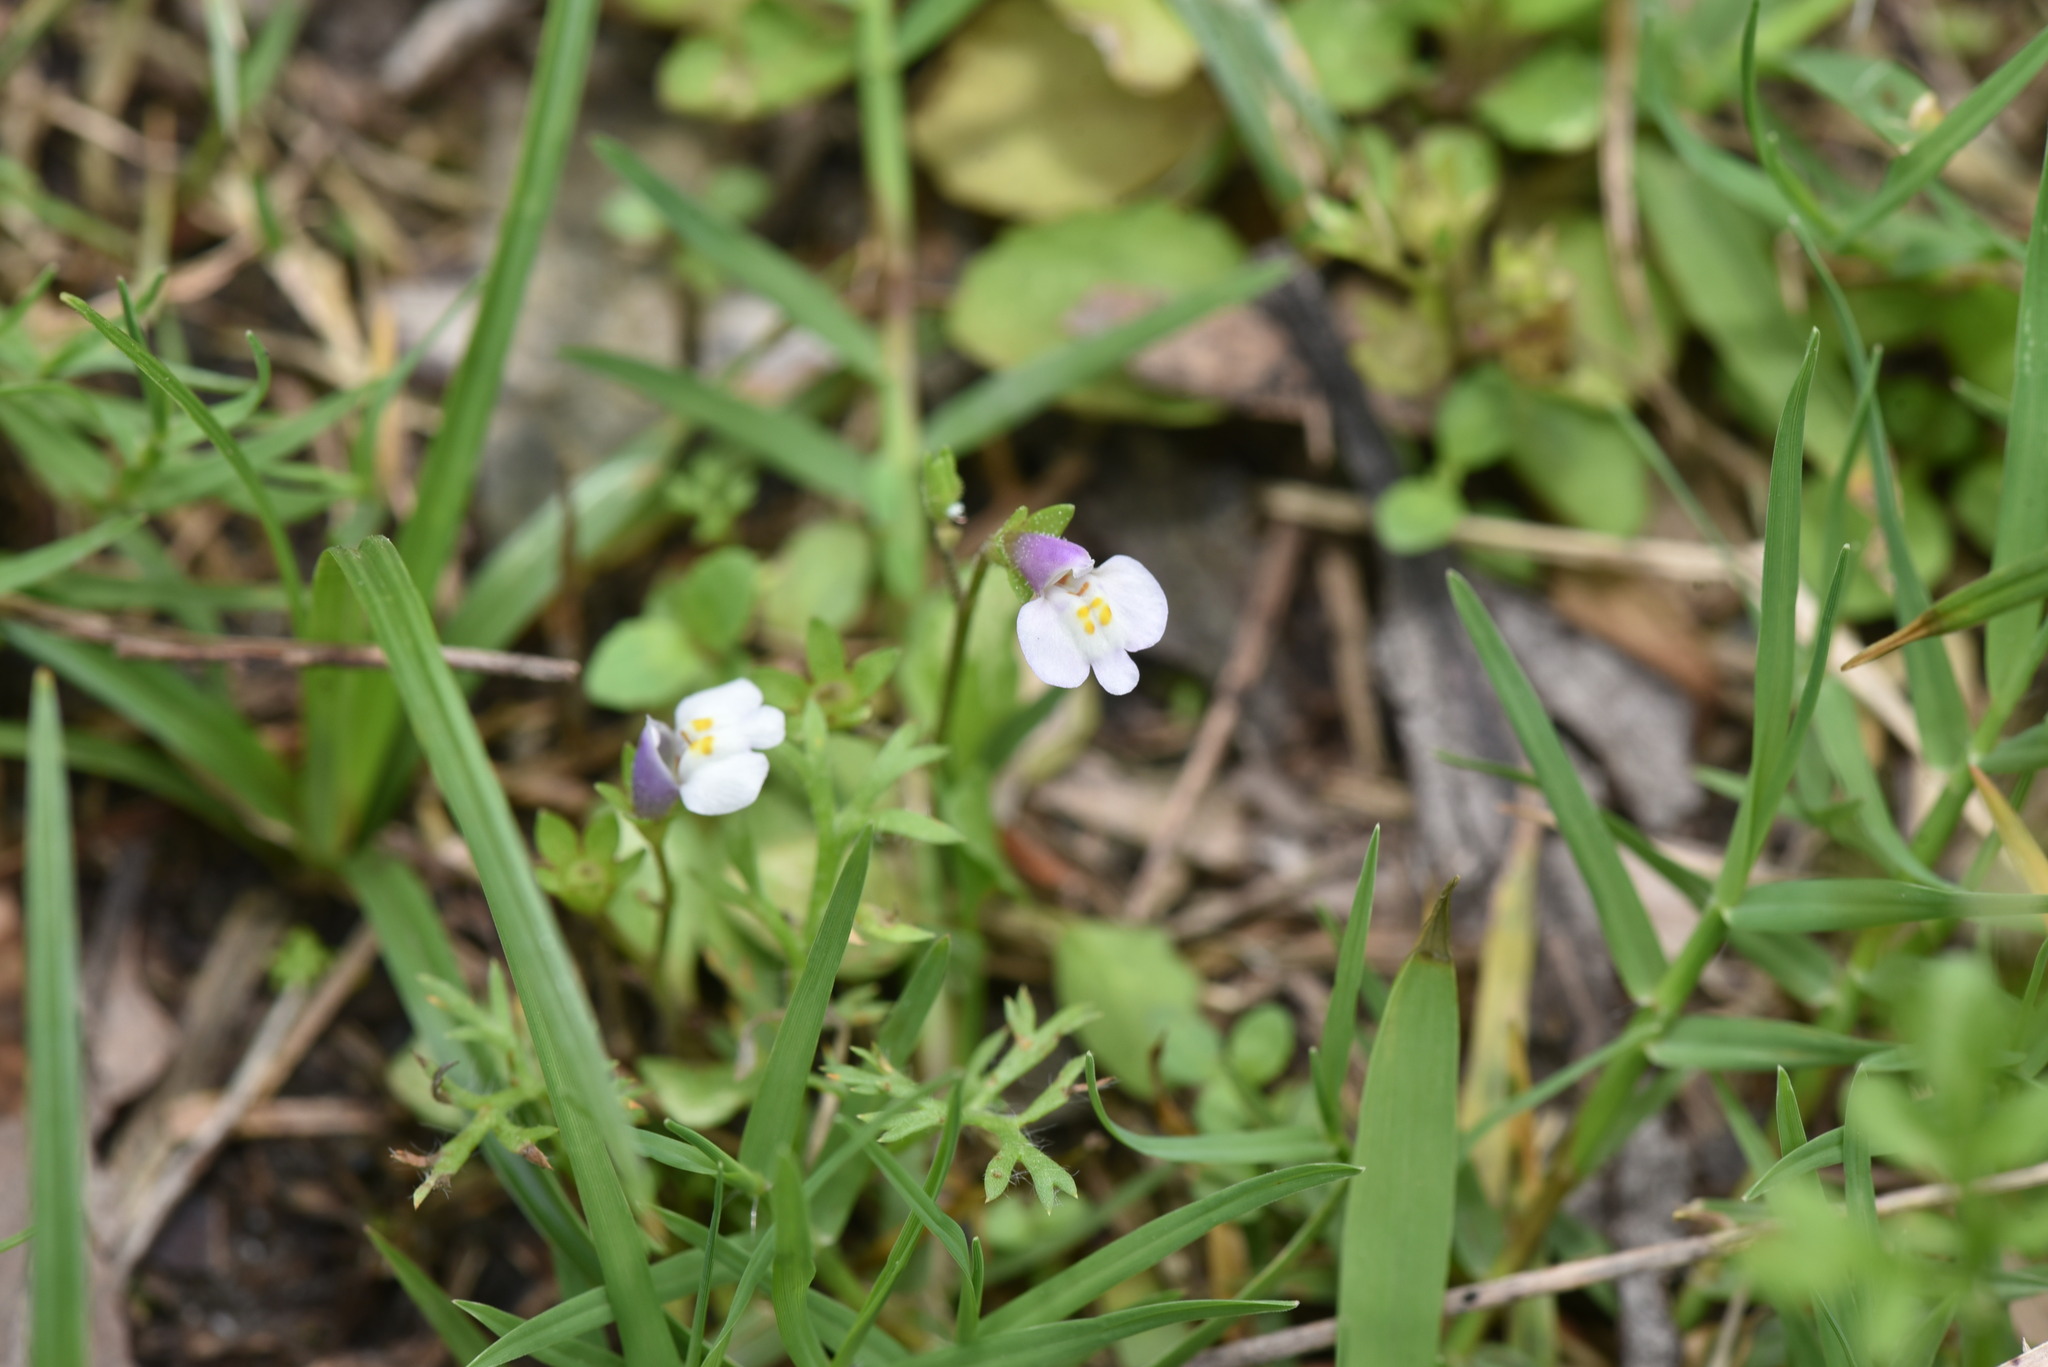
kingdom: Plantae
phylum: Tracheophyta
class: Magnoliopsida
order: Lamiales
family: Mazaceae
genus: Mazus
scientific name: Mazus pumilus
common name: Japanese mazus
